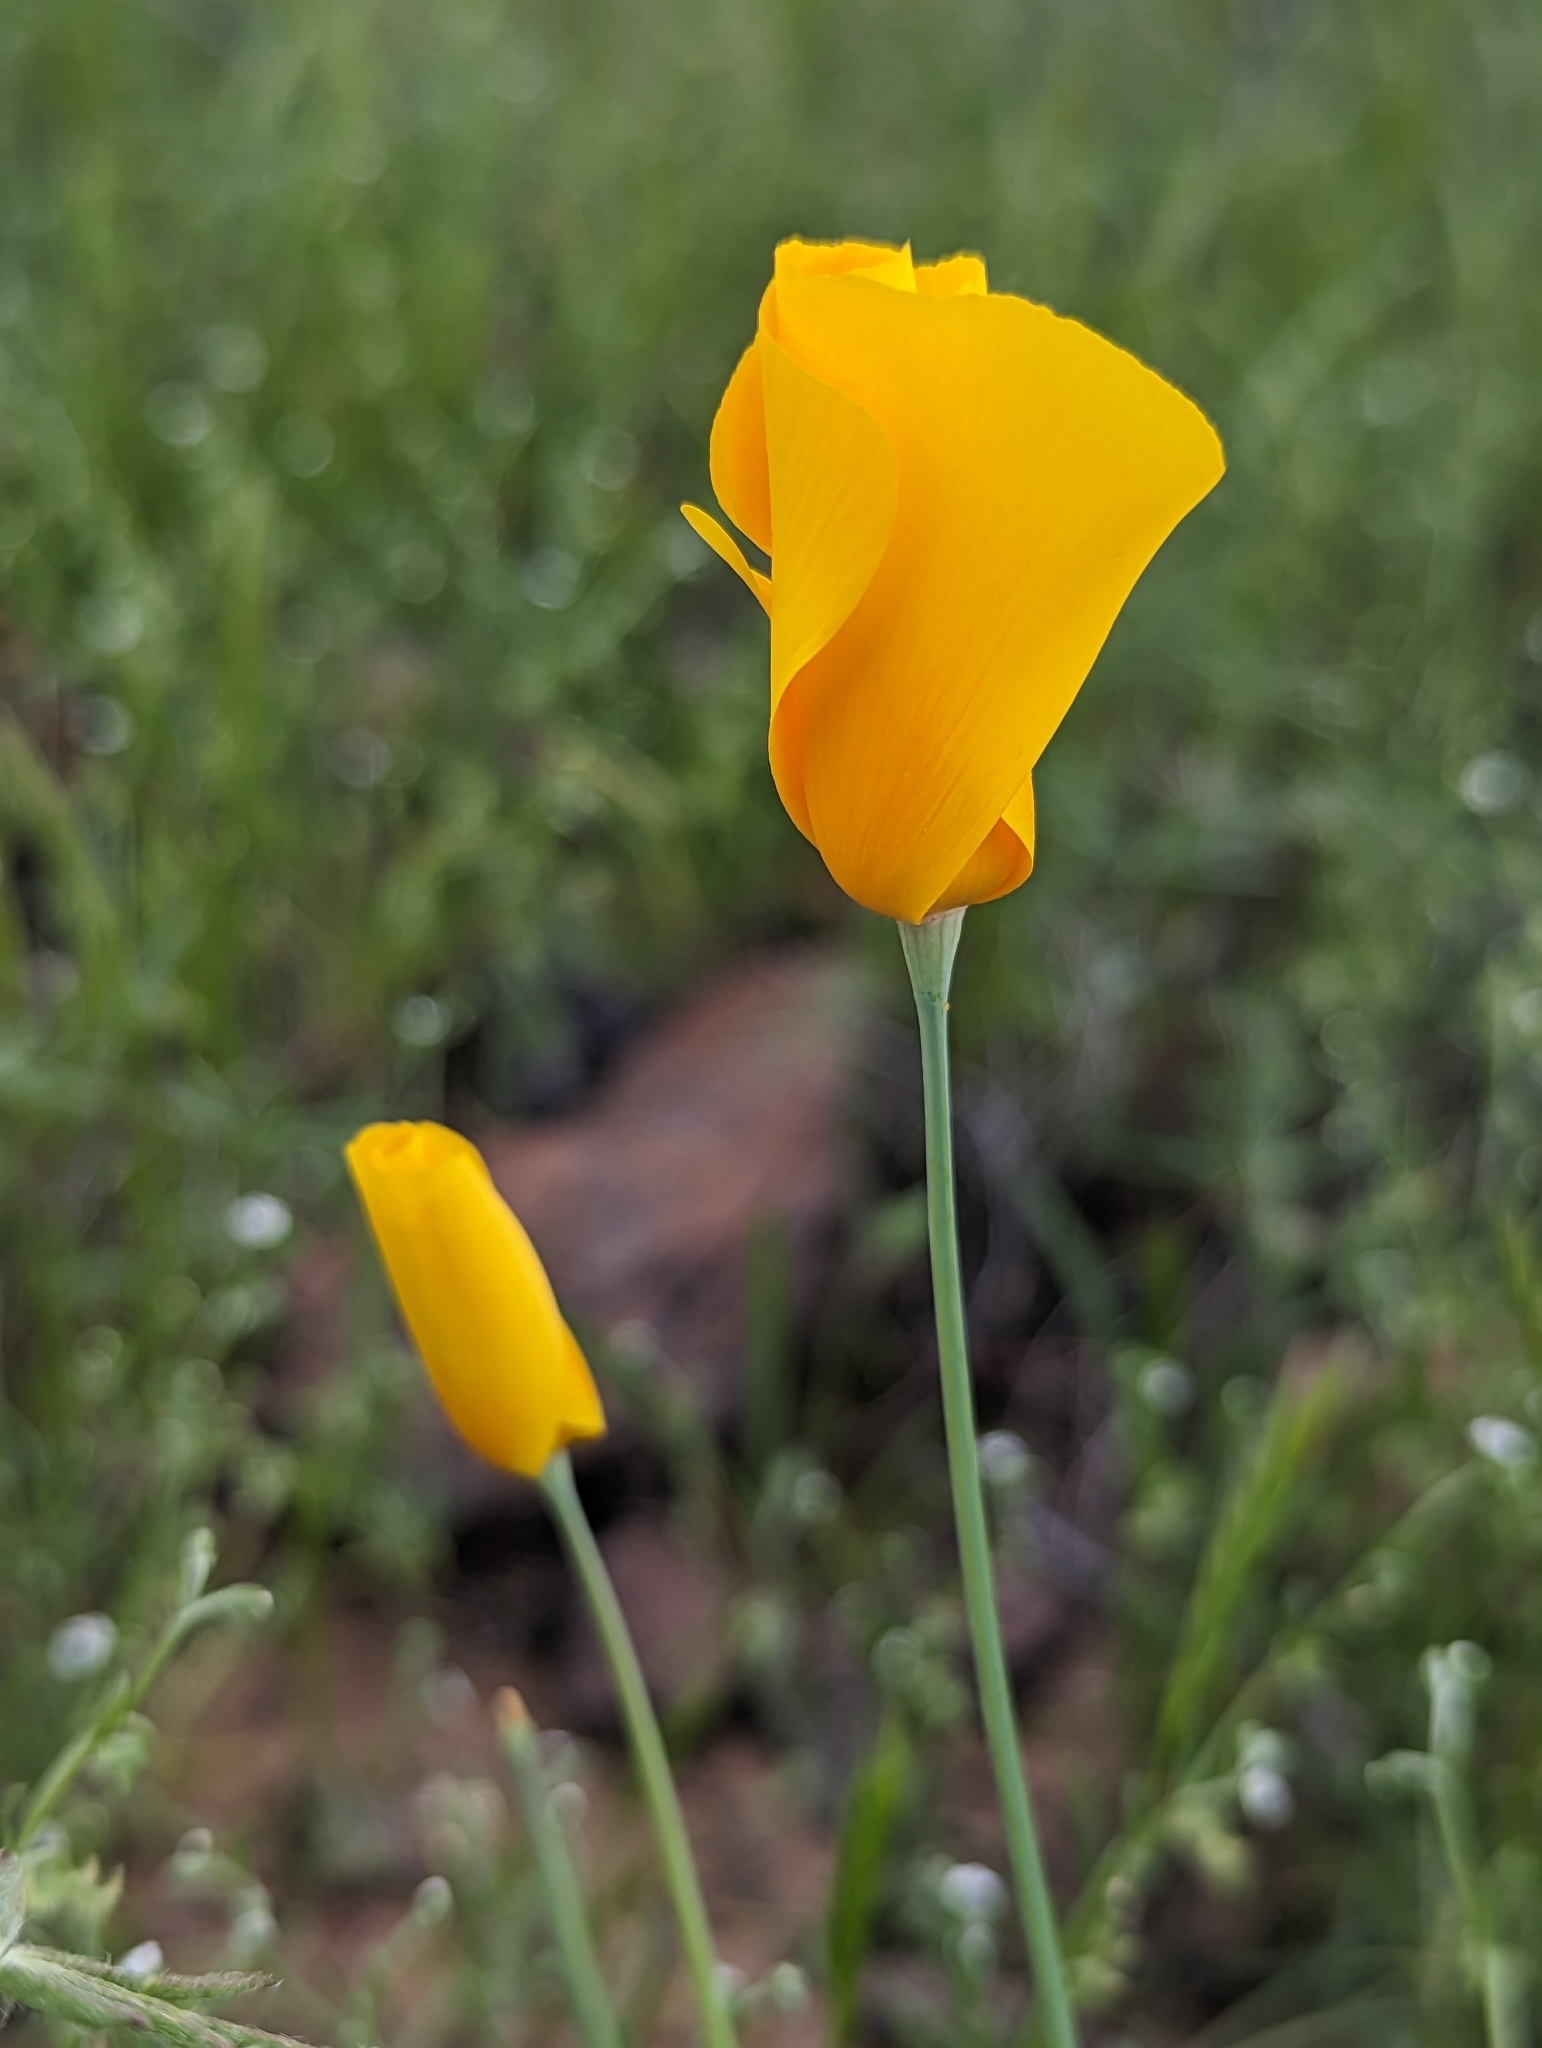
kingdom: Plantae
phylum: Tracheophyta
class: Magnoliopsida
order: Ranunculales
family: Papaveraceae
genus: Eschscholzia
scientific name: Eschscholzia californica
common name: California poppy
